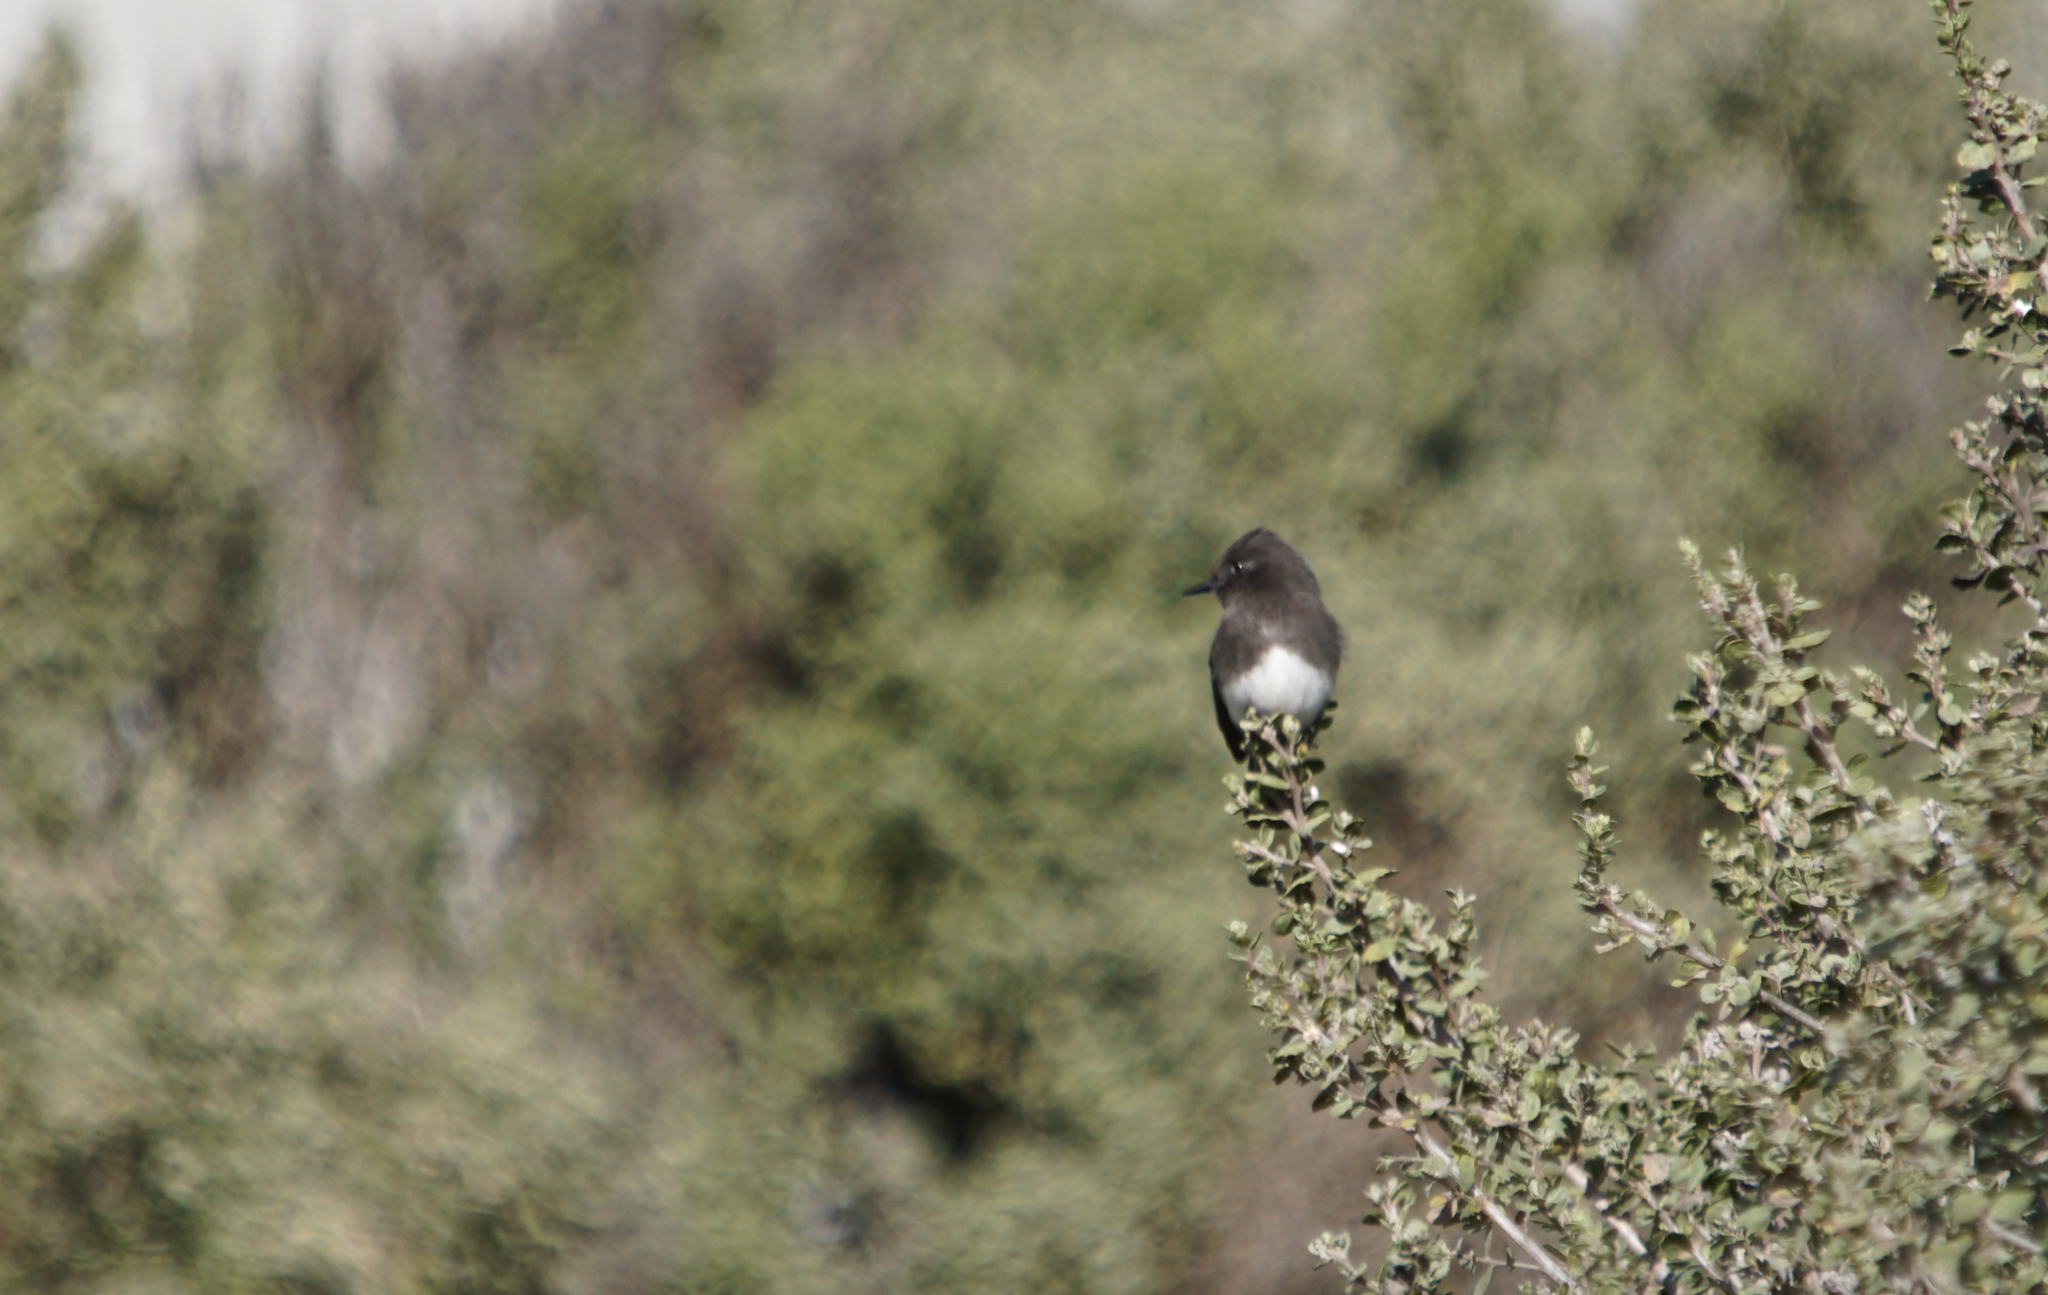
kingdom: Animalia
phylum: Chordata
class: Aves
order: Passeriformes
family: Tyrannidae
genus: Sayornis
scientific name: Sayornis nigricans
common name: Black phoebe
